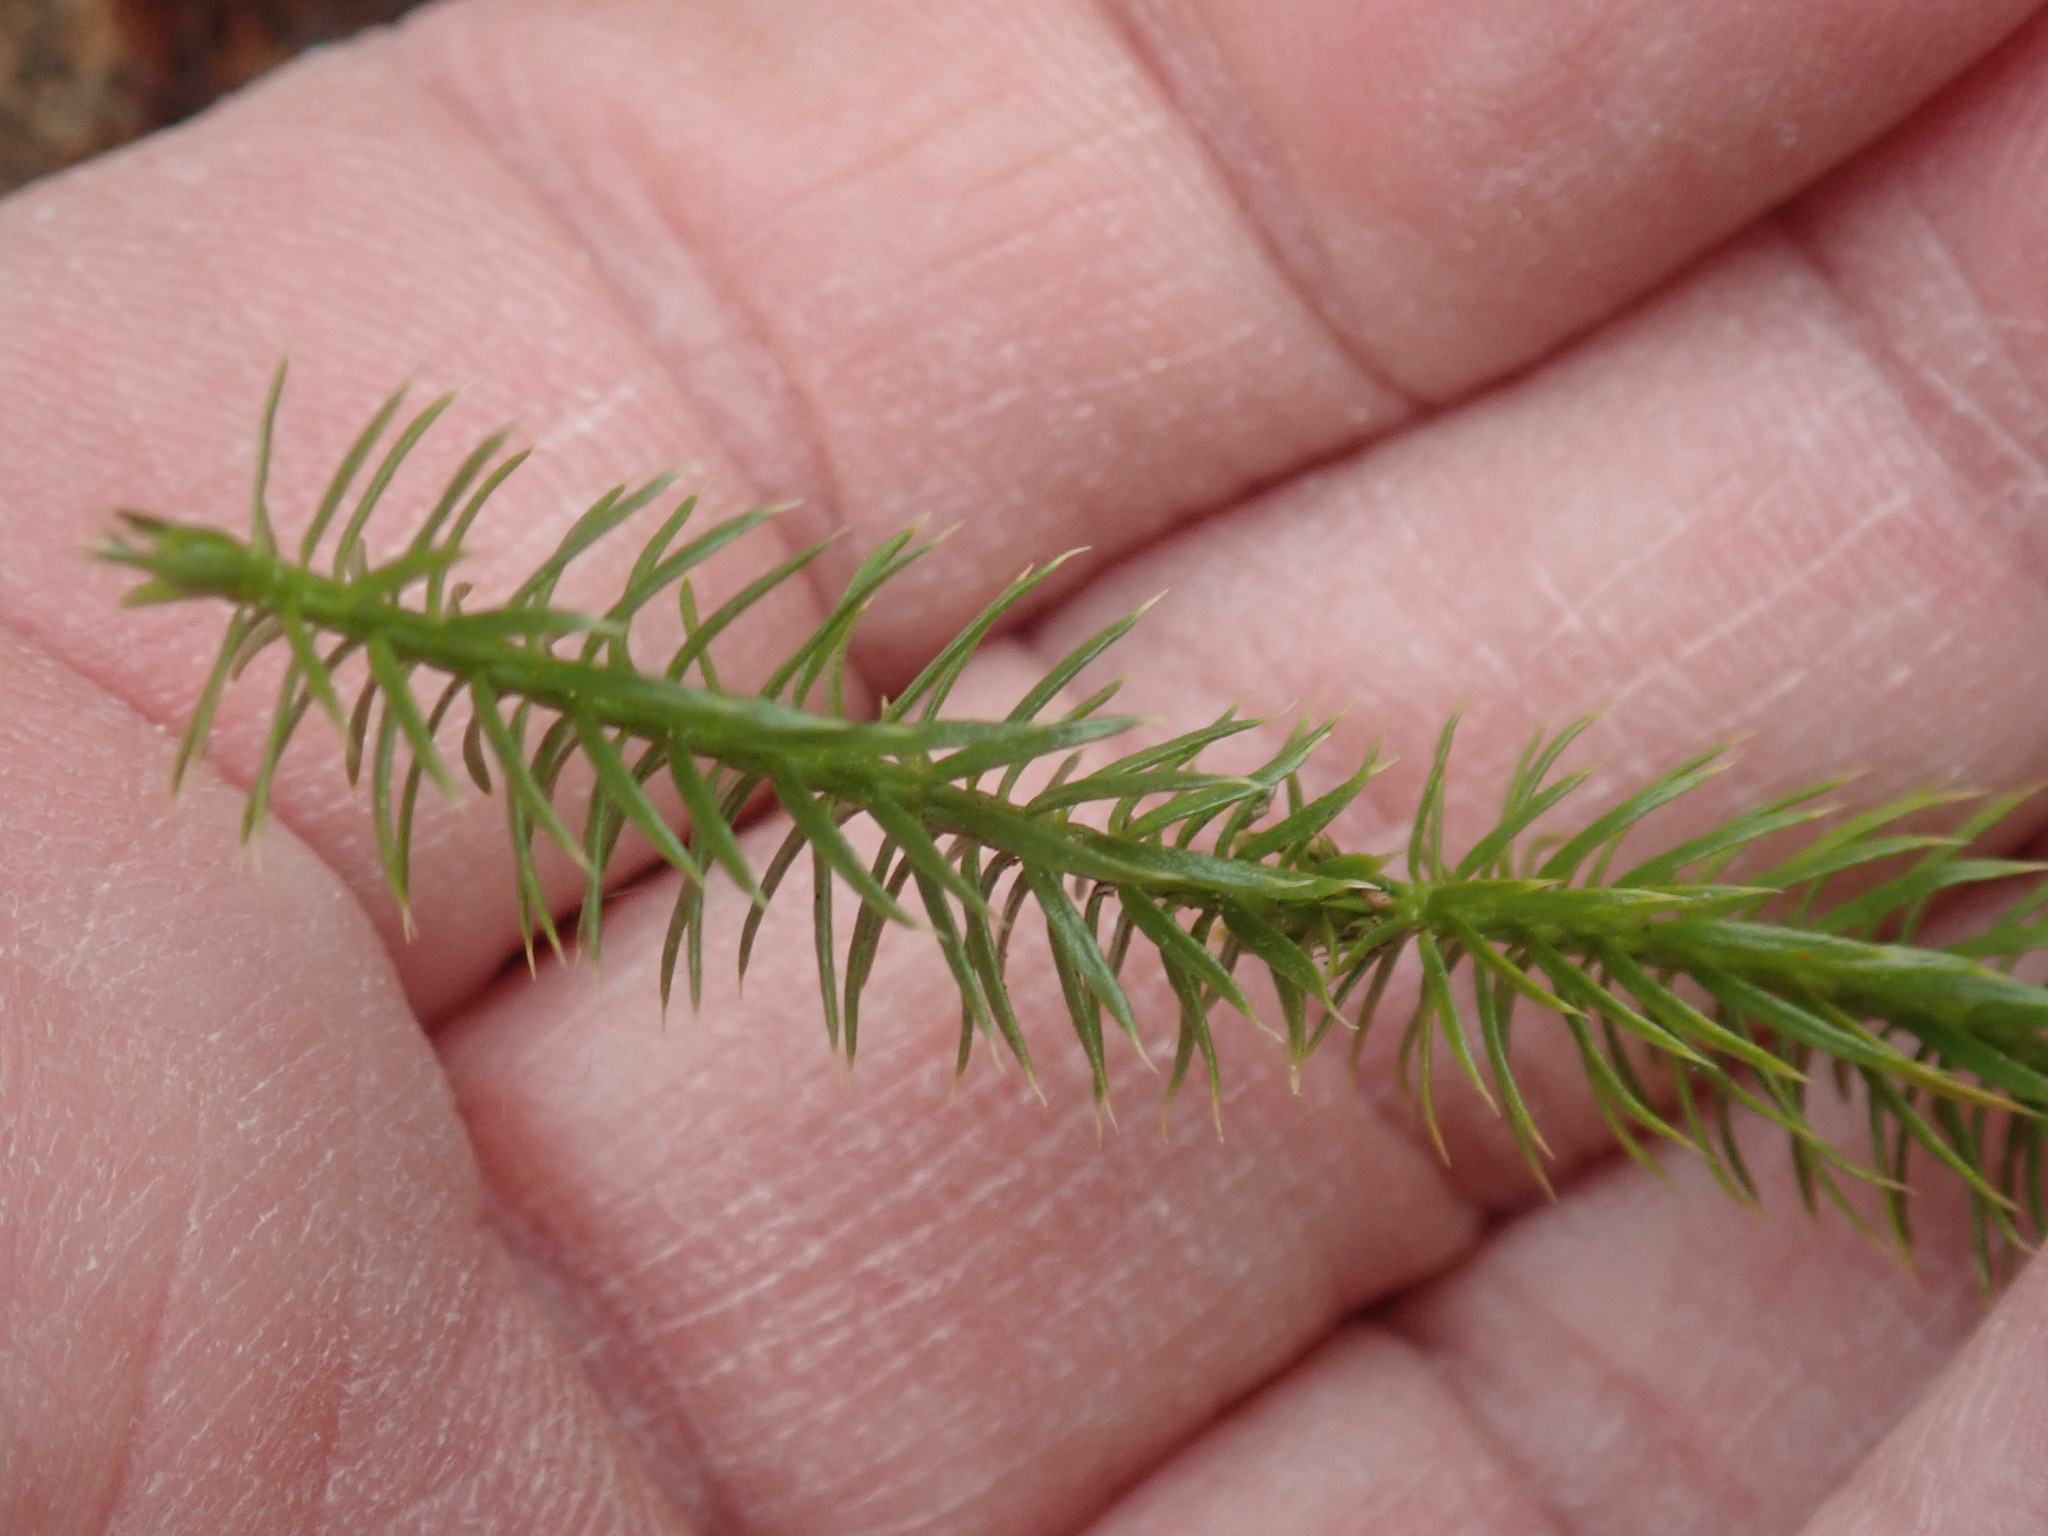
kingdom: Plantae
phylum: Tracheophyta
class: Lycopodiopsida
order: Lycopodiales
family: Lycopodiaceae
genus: Spinulum
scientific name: Spinulum annotinum
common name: Interrupted club-moss
